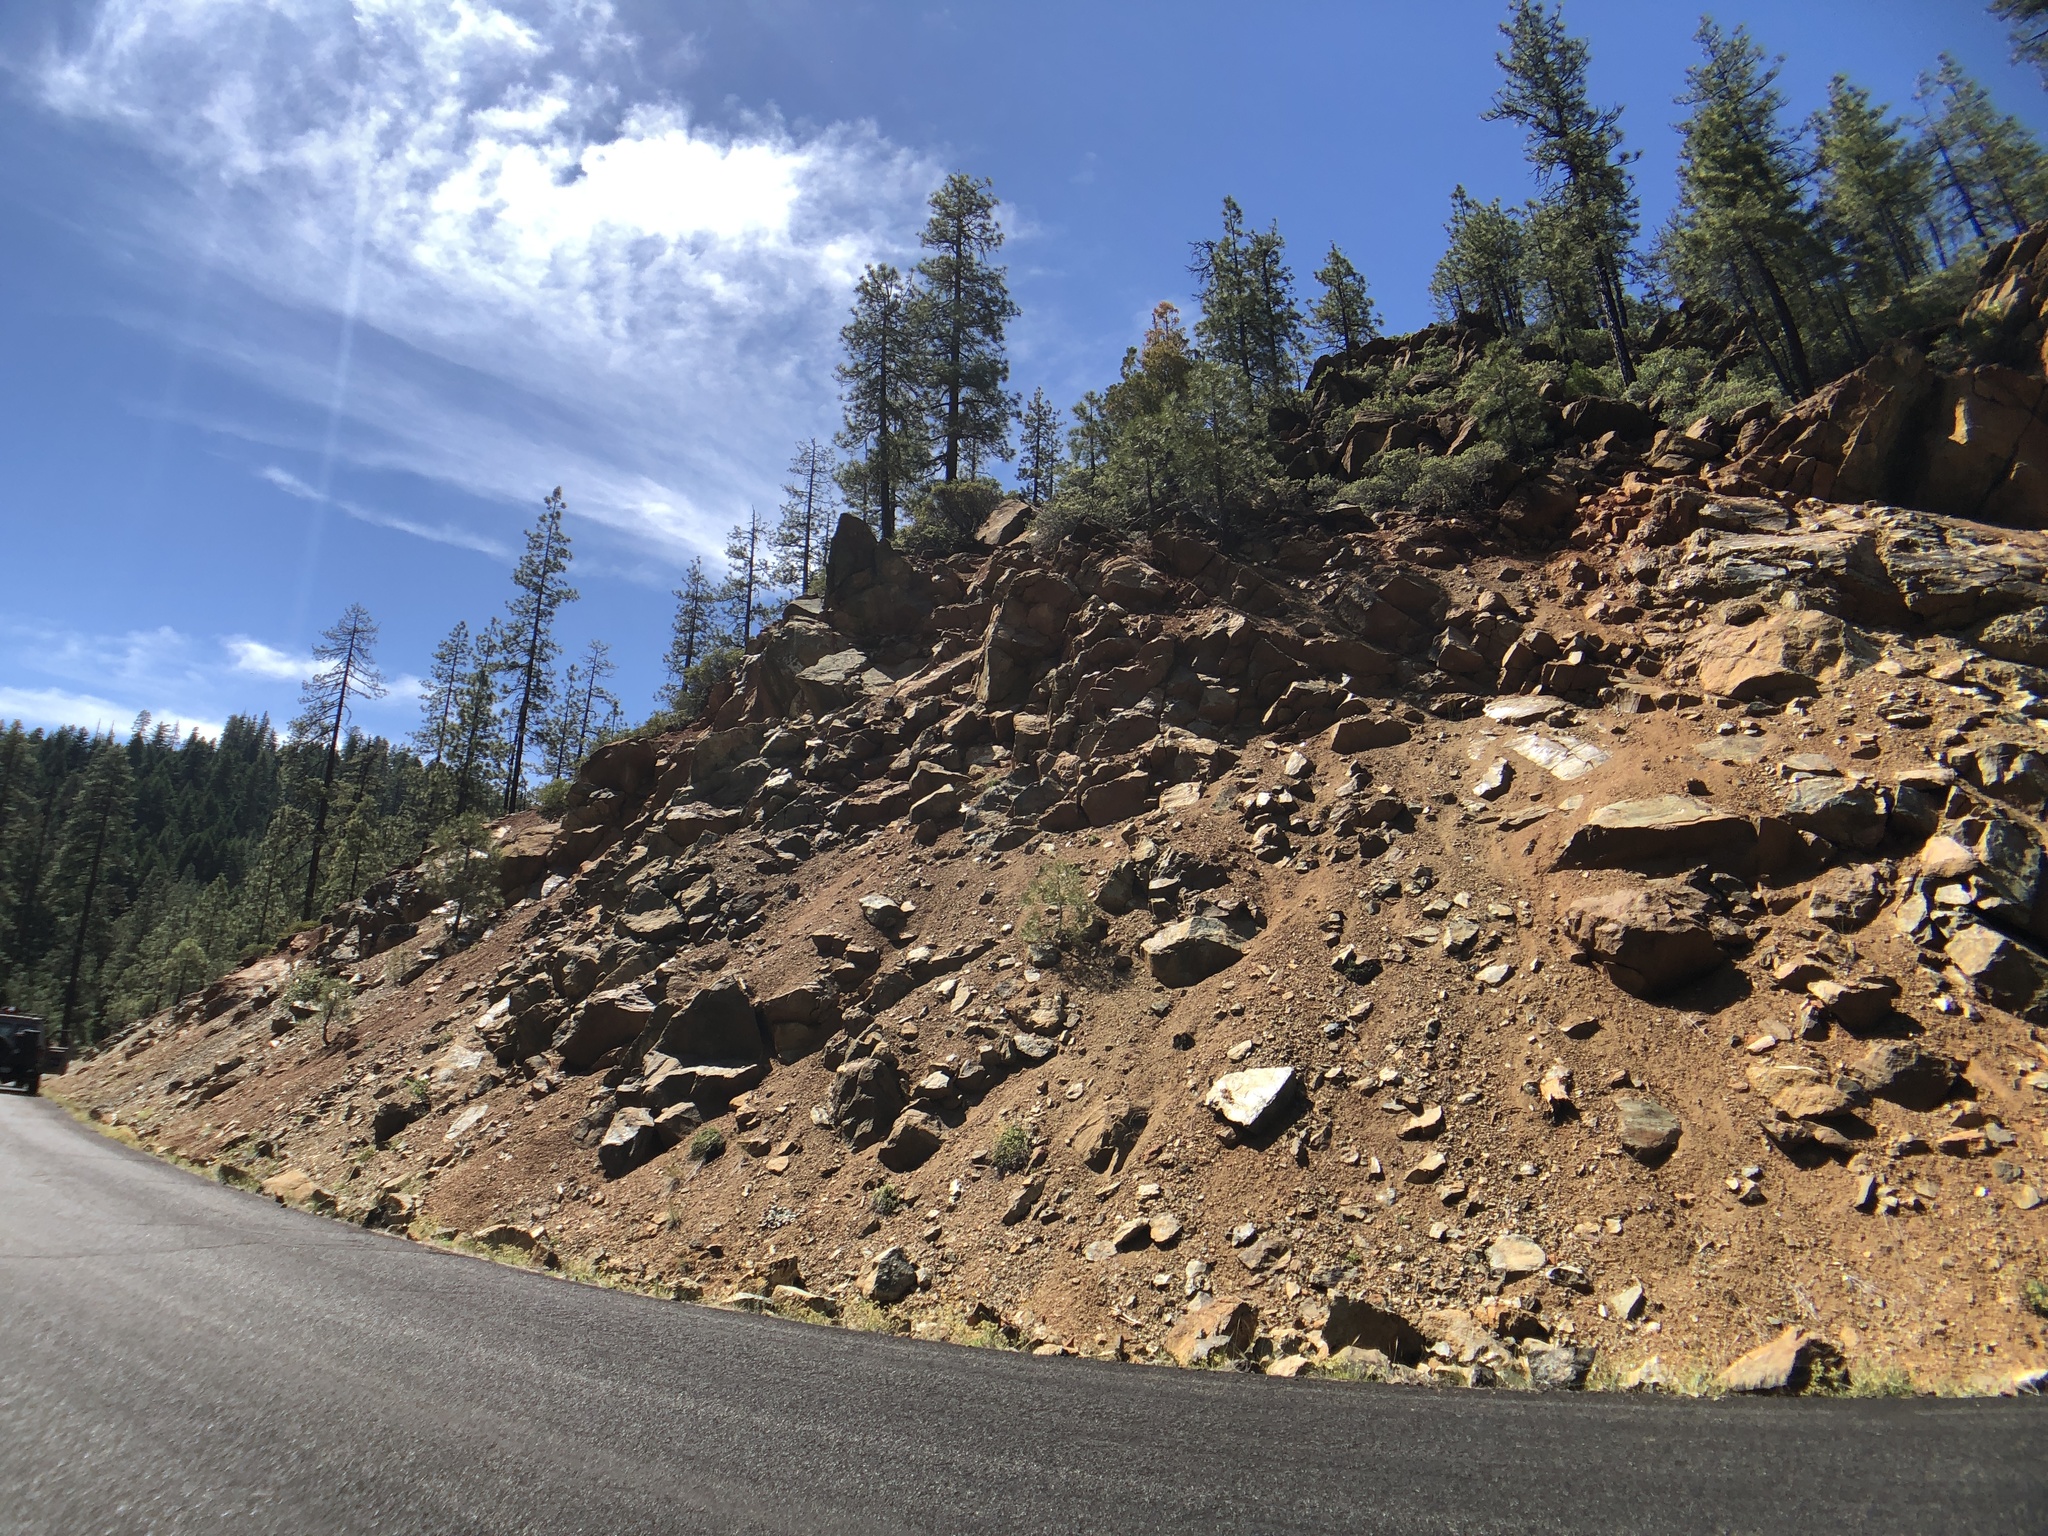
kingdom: Plantae
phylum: Tracheophyta
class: Magnoliopsida
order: Gentianales
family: Apocynaceae
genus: Asclepias
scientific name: Asclepias solanoana
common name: Serpentine milkweed
